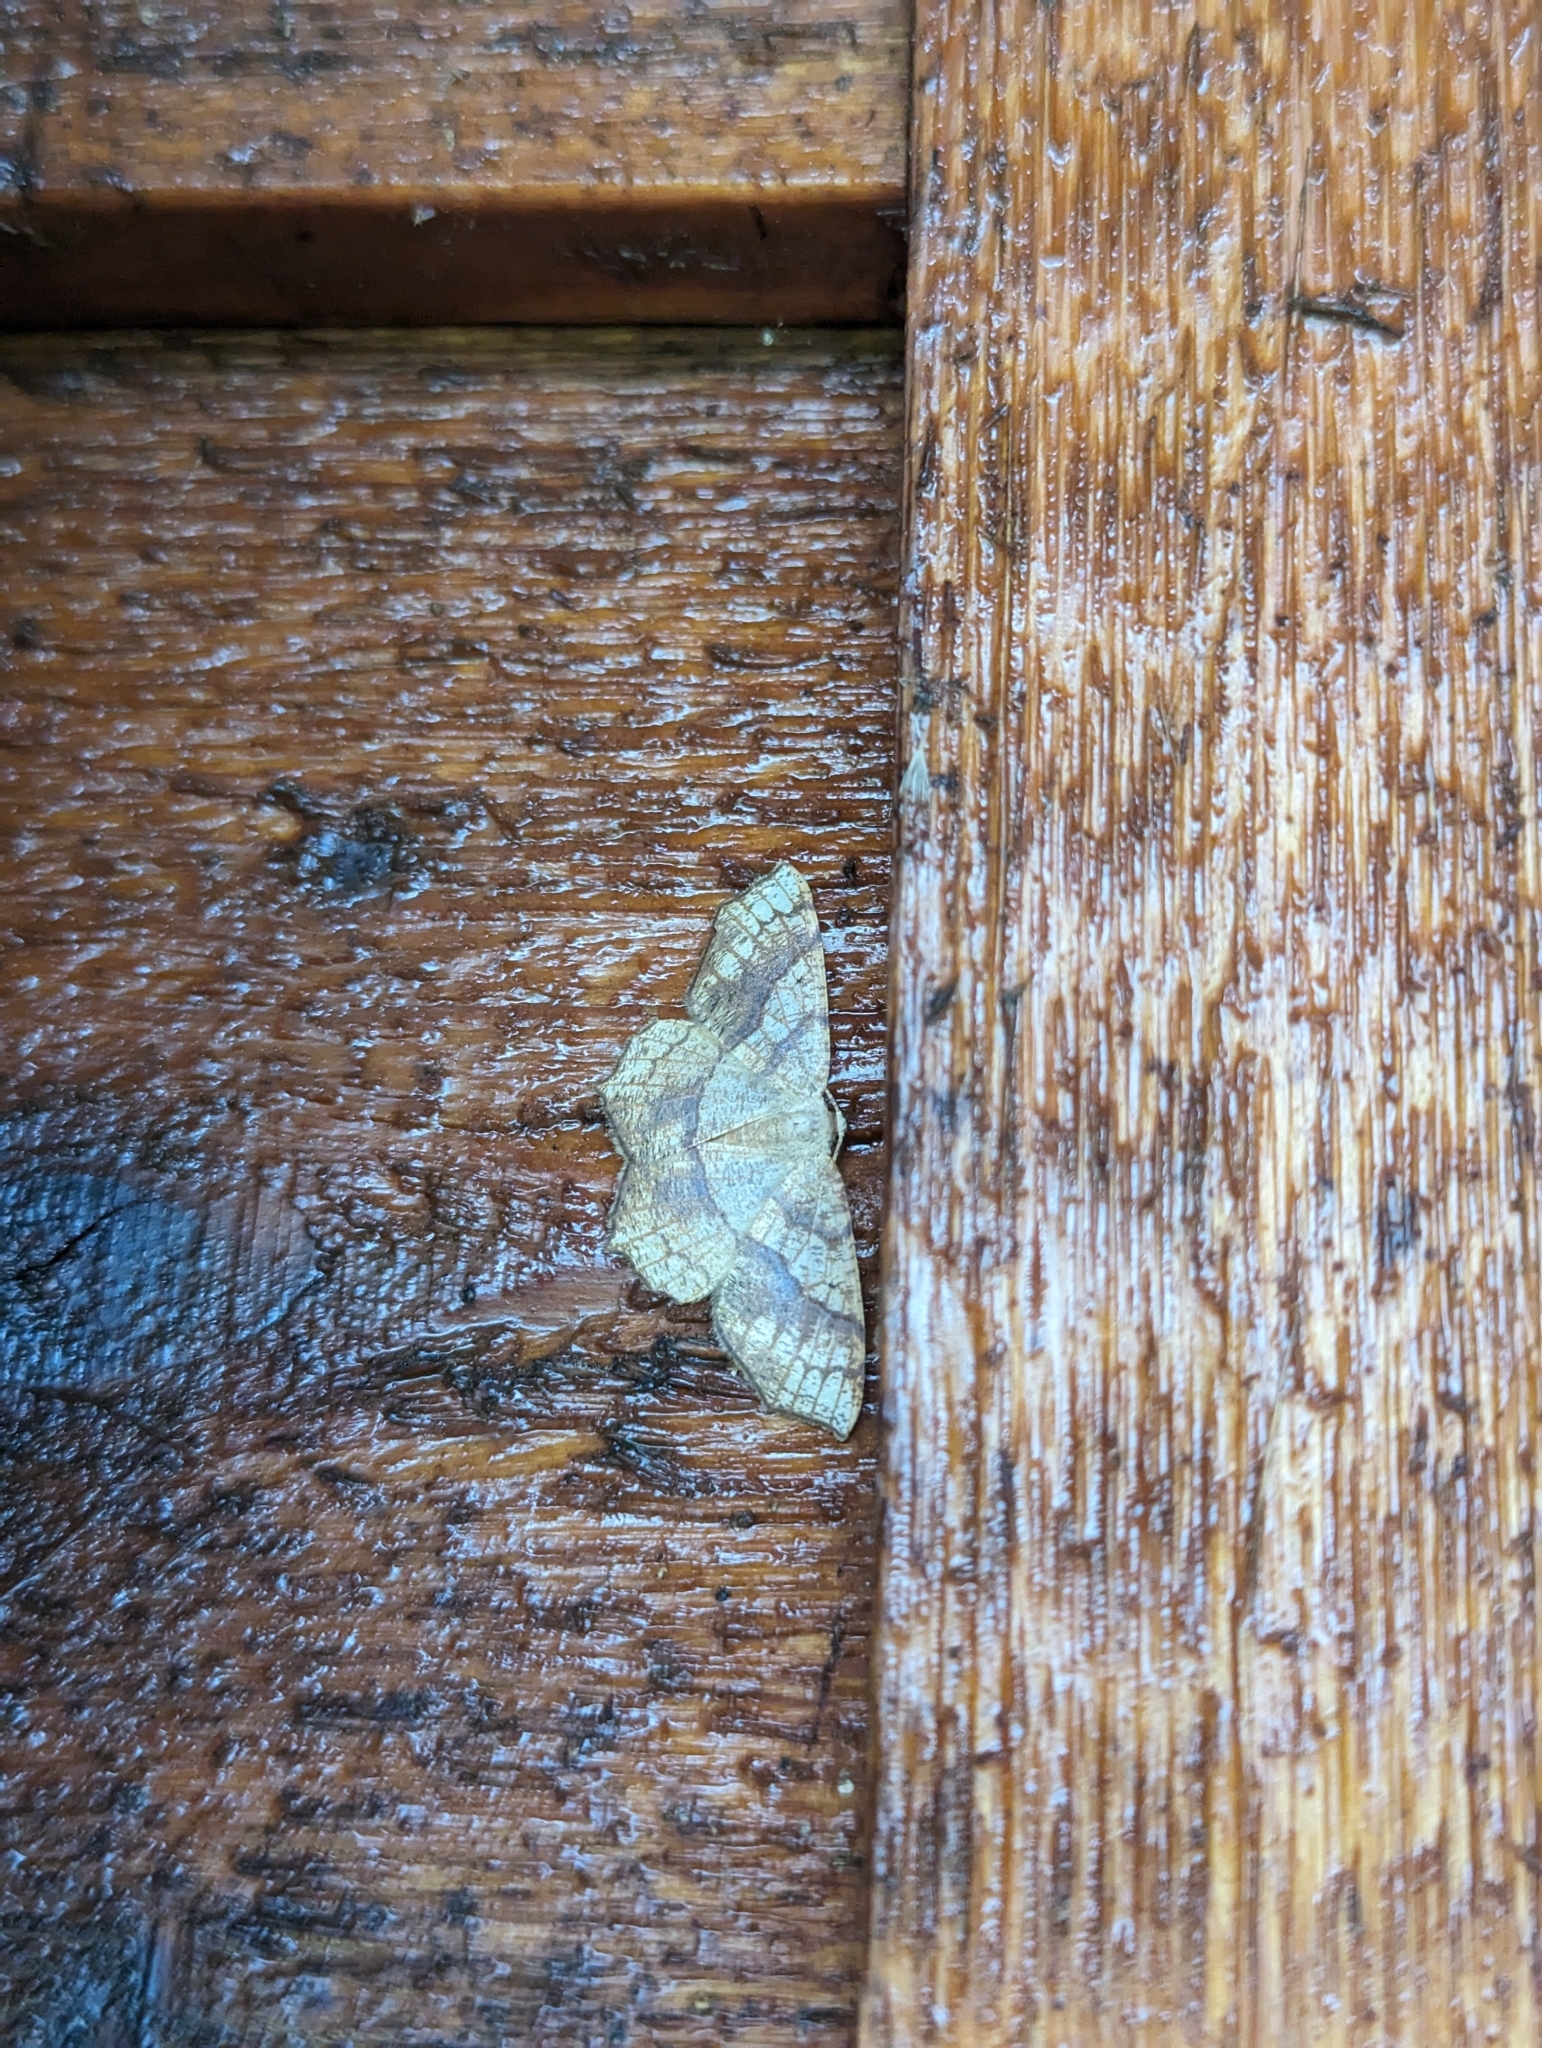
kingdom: Animalia
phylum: Arthropoda
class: Insecta
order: Lepidoptera
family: Geometridae
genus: Digrammia
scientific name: Digrammia ocellinata
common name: Faint-spotted angle
